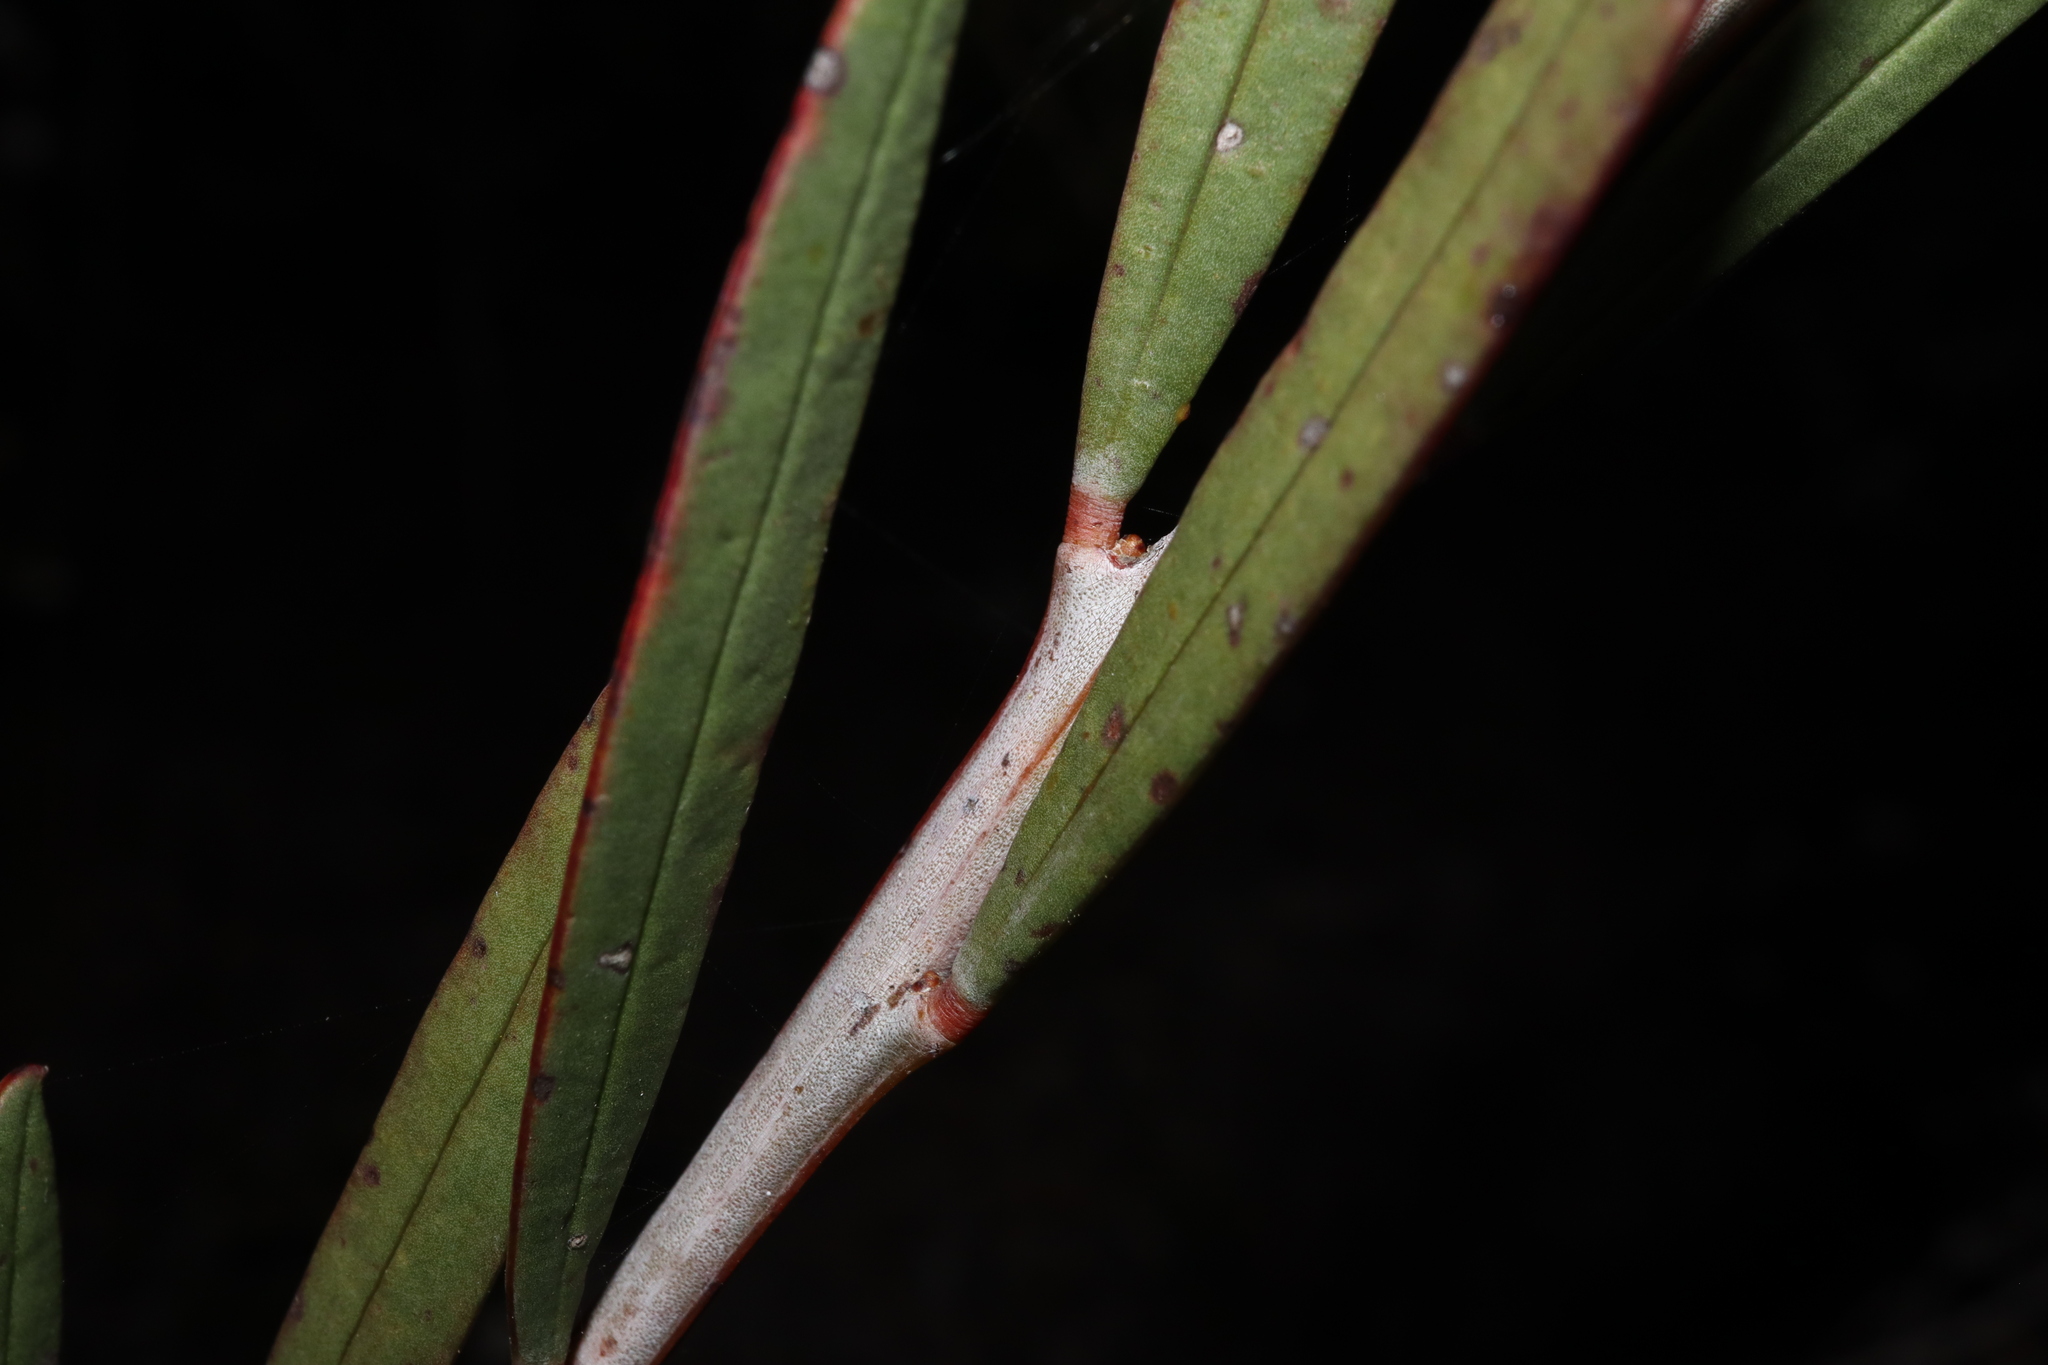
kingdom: Plantae
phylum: Tracheophyta
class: Magnoliopsida
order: Fabales
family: Fabaceae
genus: Acacia
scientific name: Acacia subcaerulea
